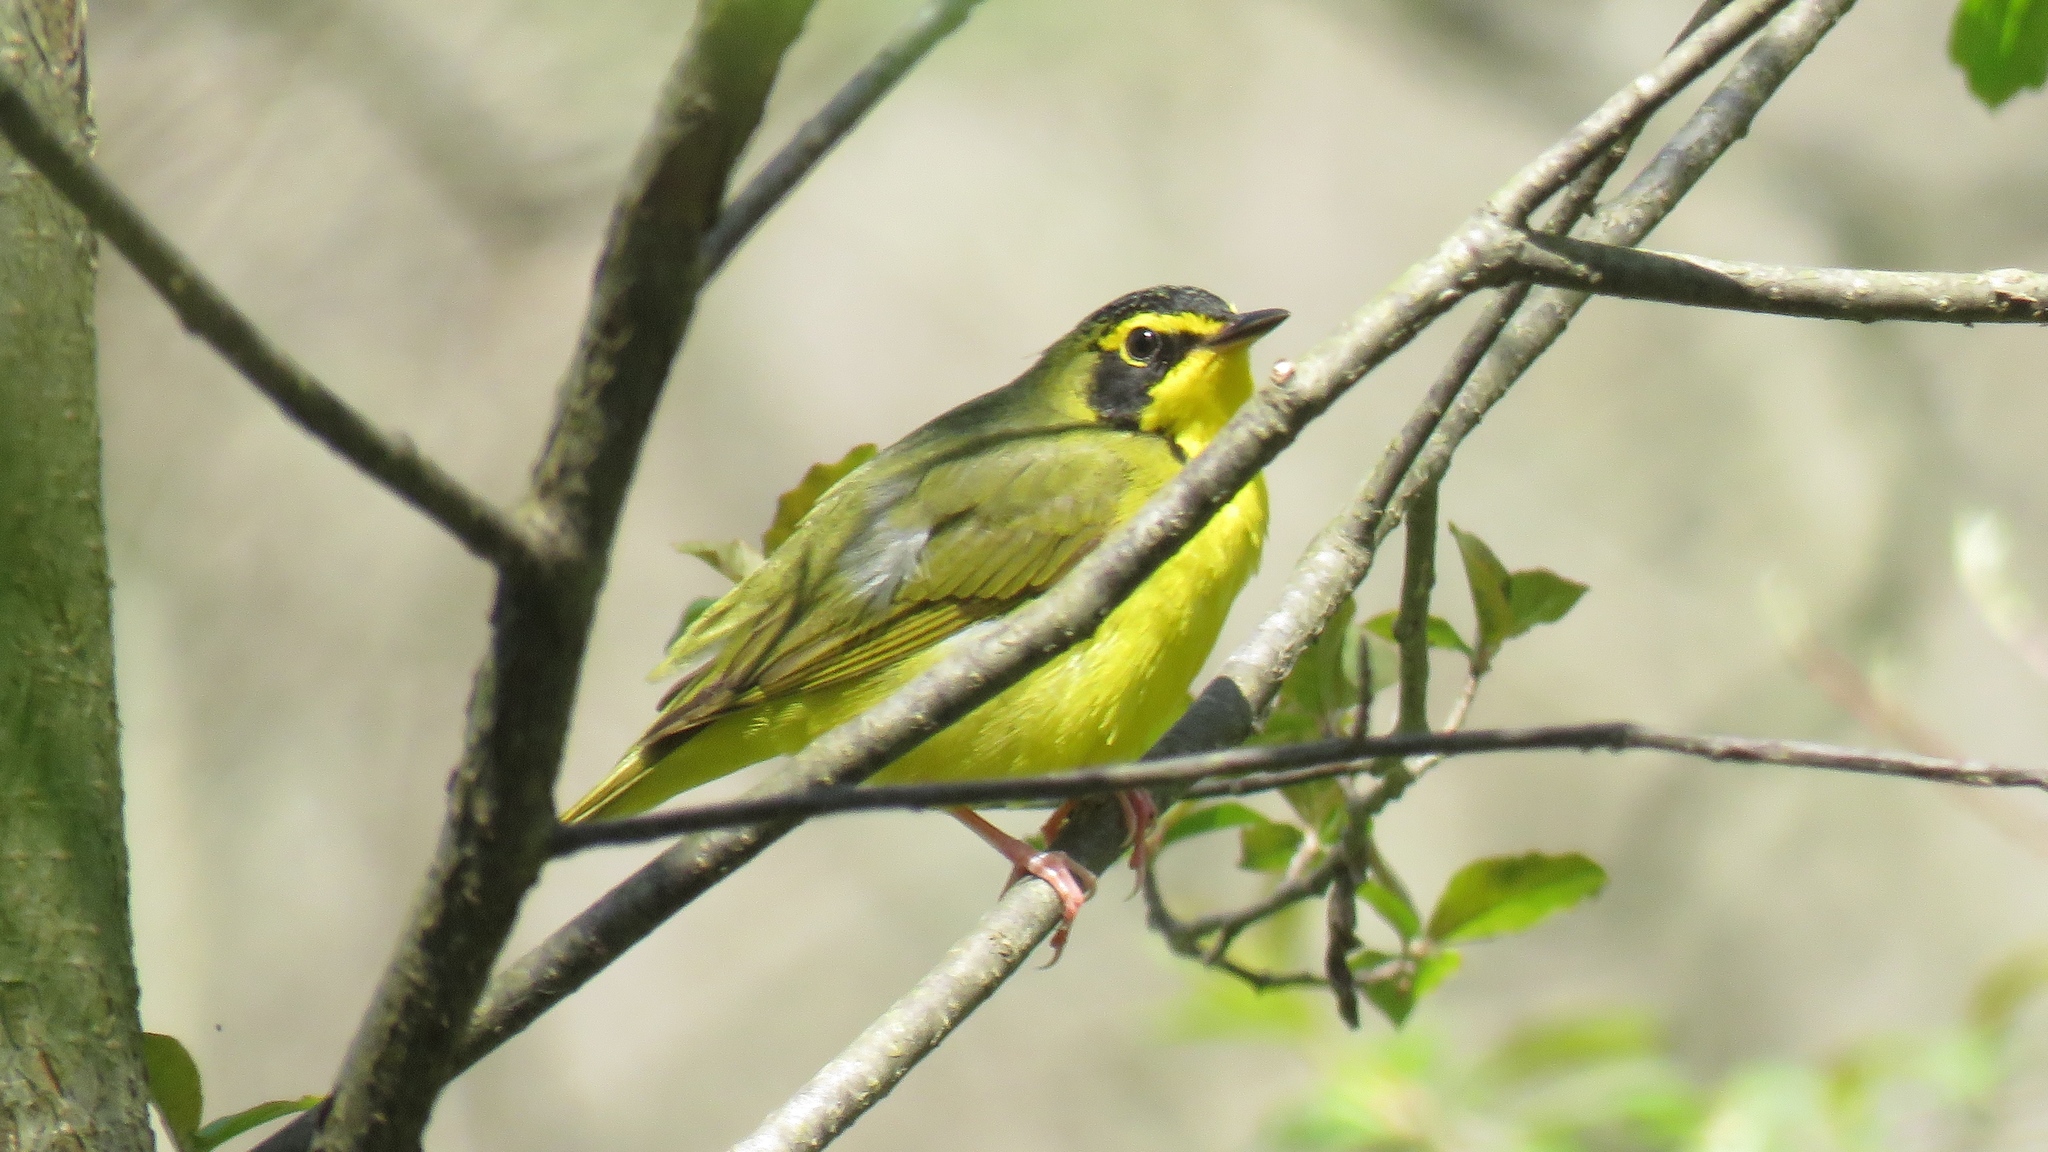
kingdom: Animalia
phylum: Chordata
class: Aves
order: Passeriformes
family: Parulidae
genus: Geothlypis
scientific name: Geothlypis formosa
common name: Kentucky warbler
